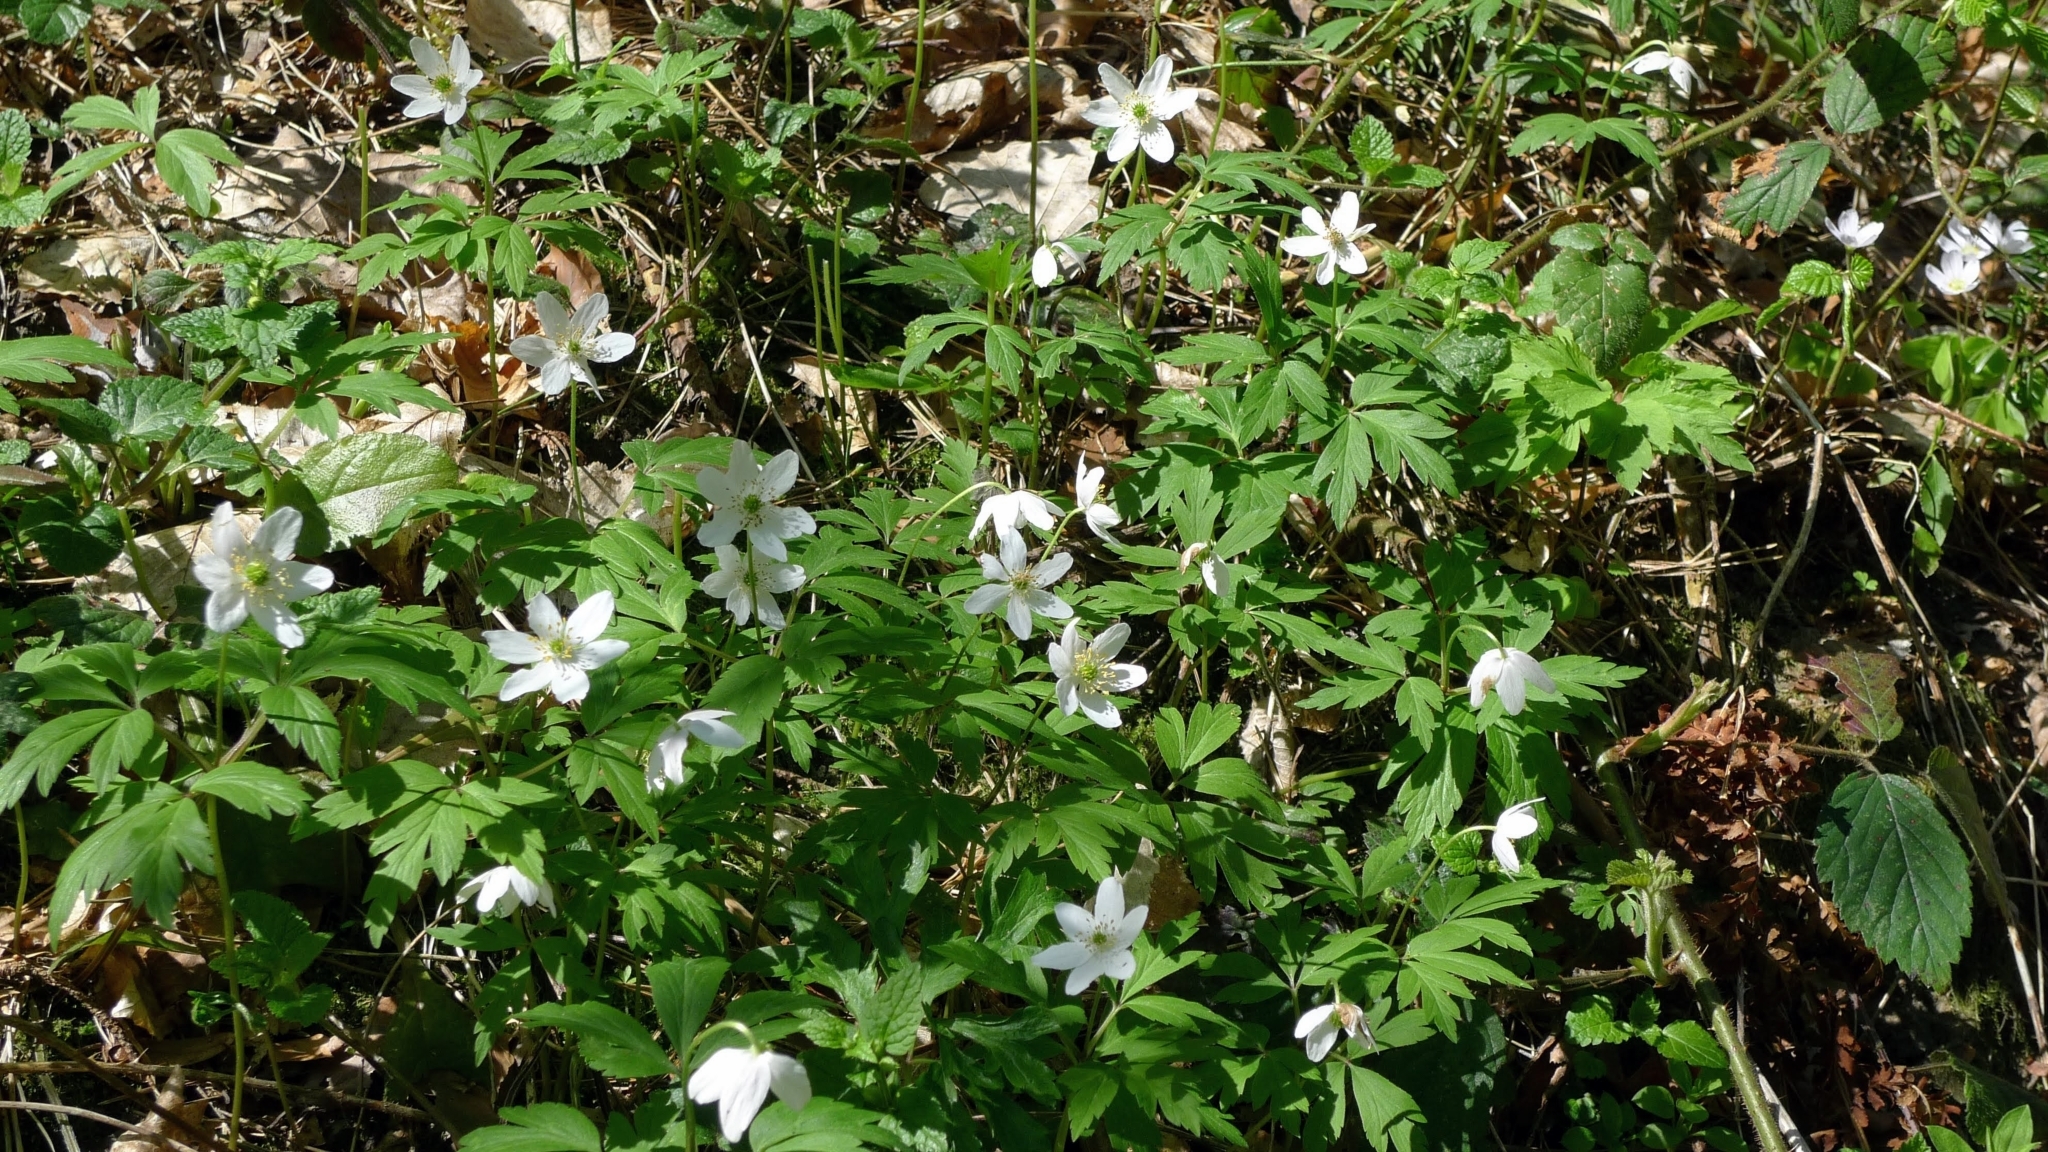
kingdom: Plantae
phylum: Tracheophyta
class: Magnoliopsida
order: Ranunculales
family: Ranunculaceae
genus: Anemone
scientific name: Anemone nemorosa
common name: Wood anemone
